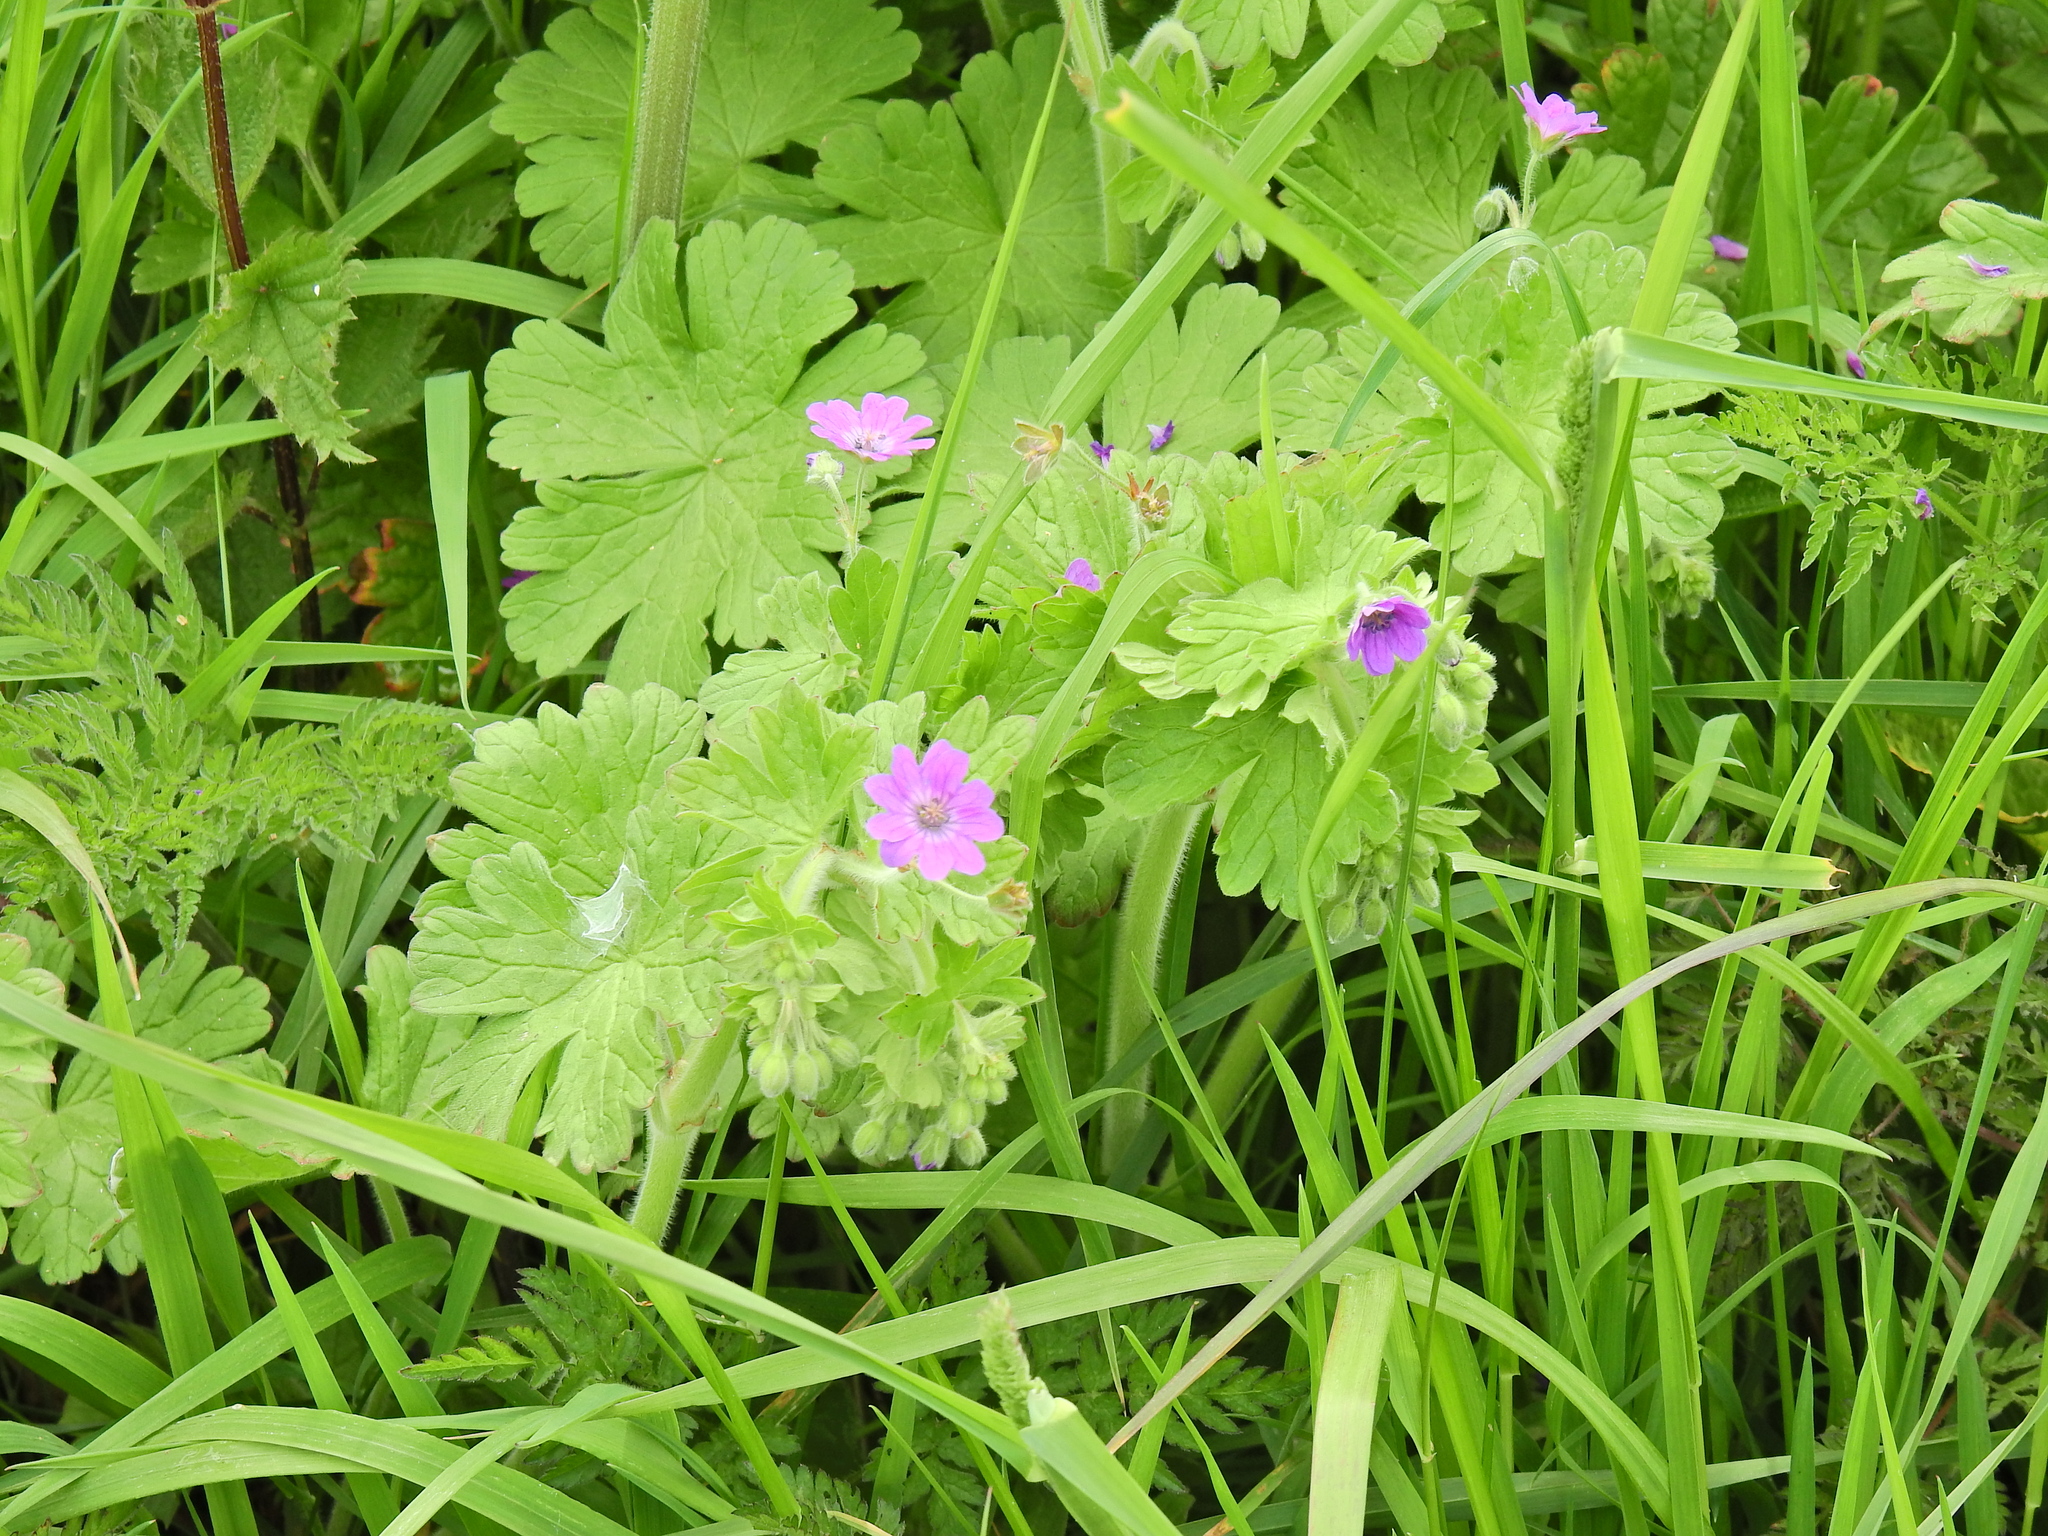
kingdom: Plantae
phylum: Tracheophyta
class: Magnoliopsida
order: Geraniales
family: Geraniaceae
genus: Geranium
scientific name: Geranium molle
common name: Dove's-foot crane's-bill
